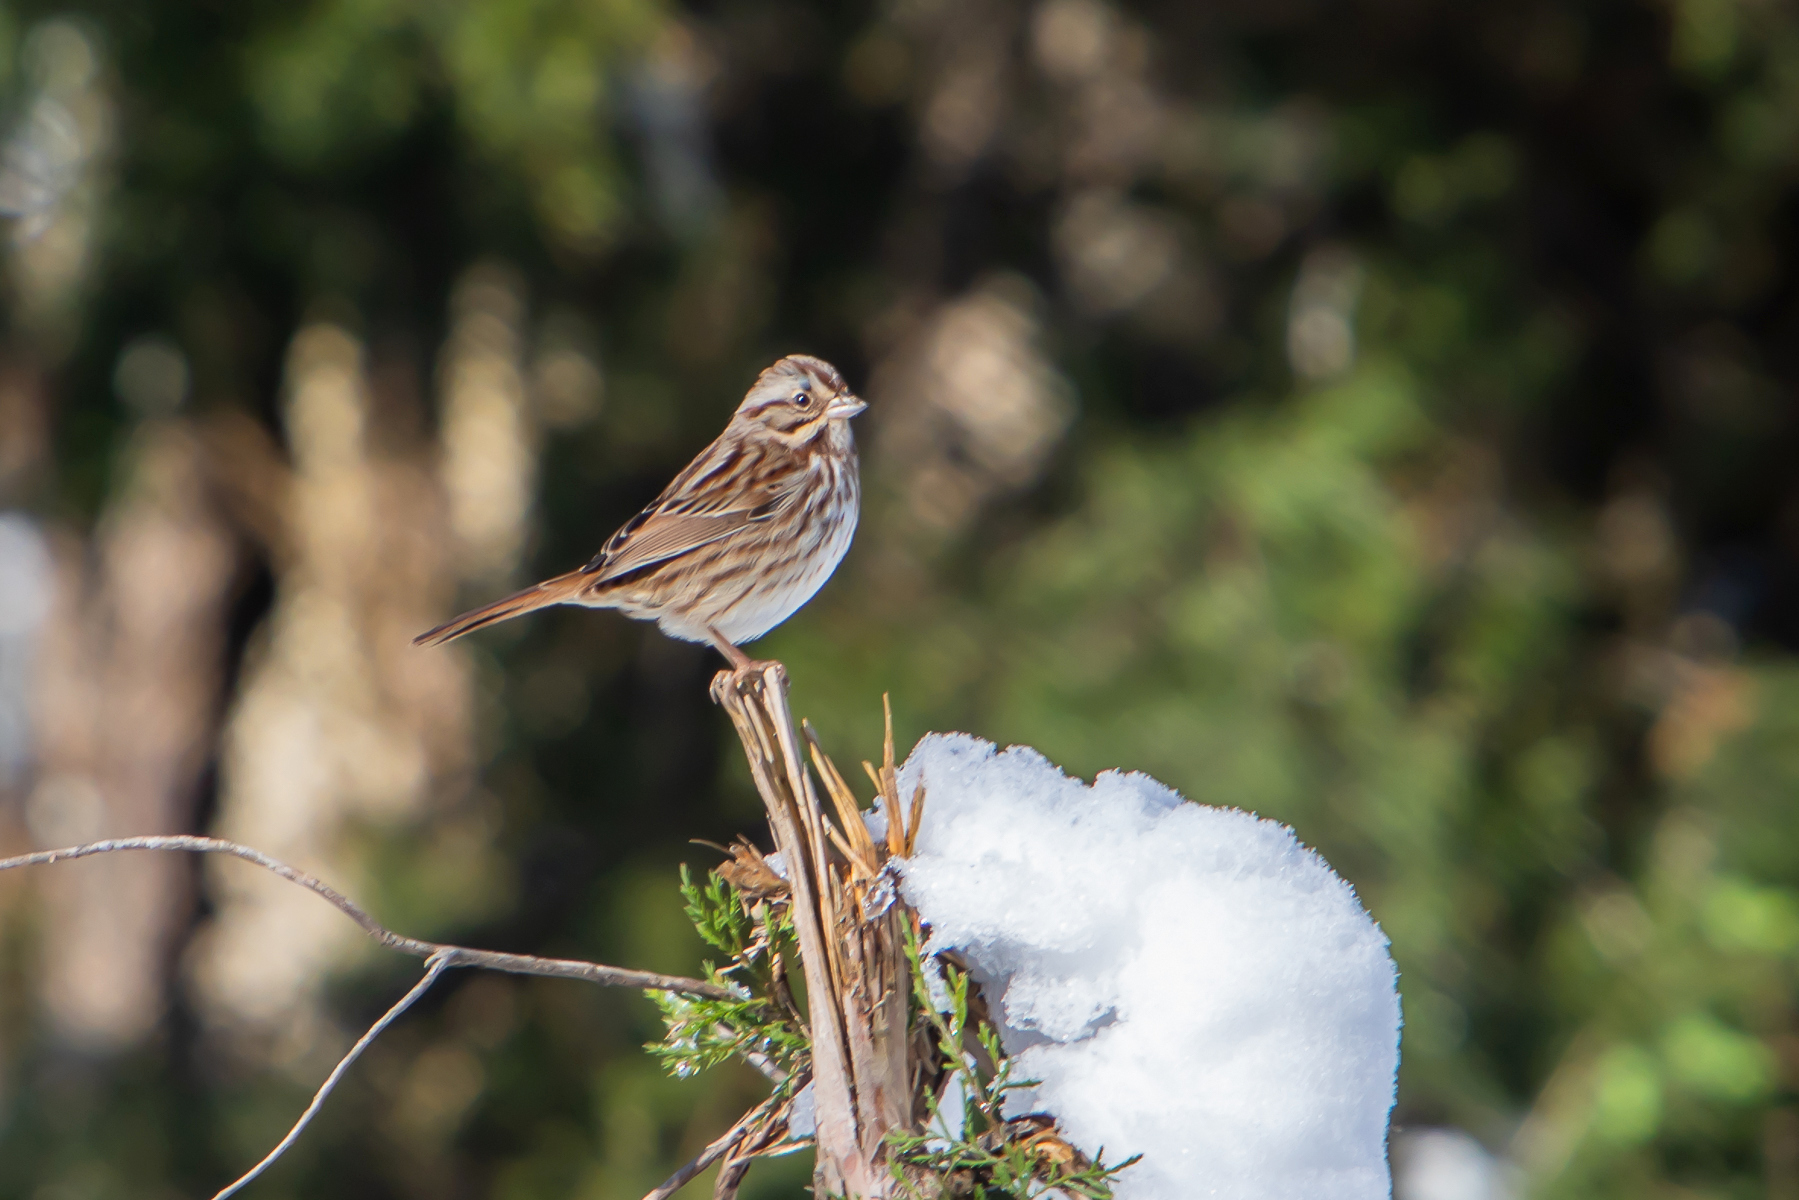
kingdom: Animalia
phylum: Chordata
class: Aves
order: Passeriformes
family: Passerellidae
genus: Melospiza
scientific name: Melospiza melodia
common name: Song sparrow
